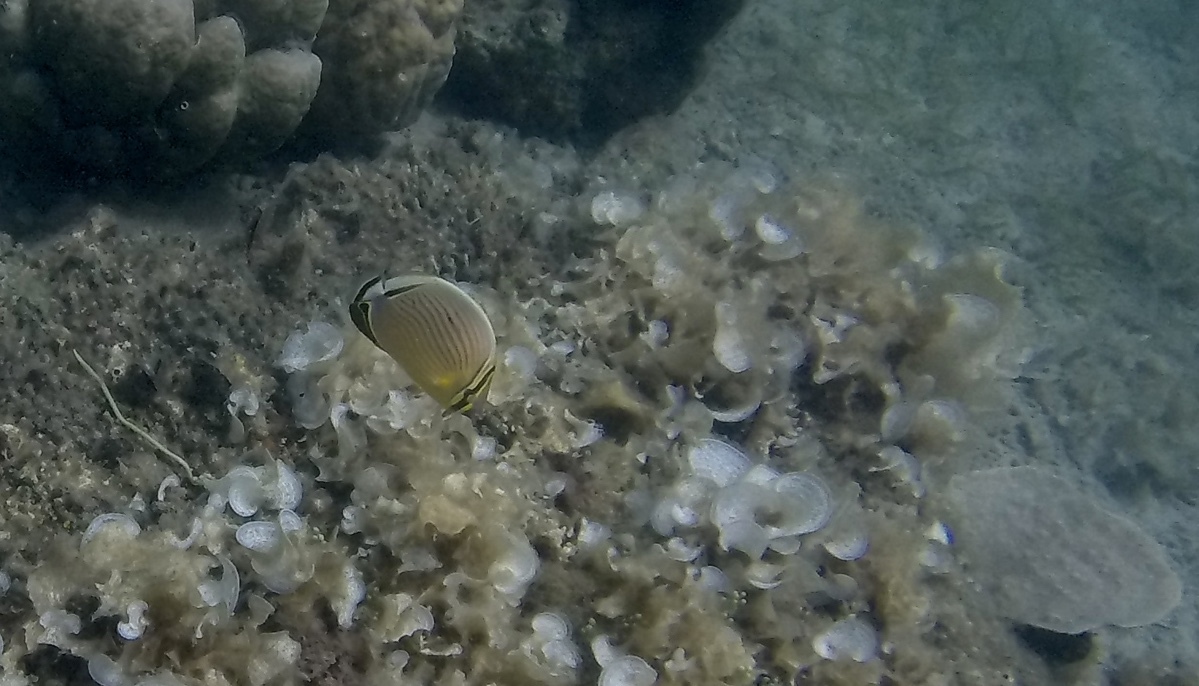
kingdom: Animalia
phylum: Chordata
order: Perciformes
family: Chaetodontidae
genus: Chaetodon
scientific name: Chaetodon lunulatus
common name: Redfin butterflyfish
